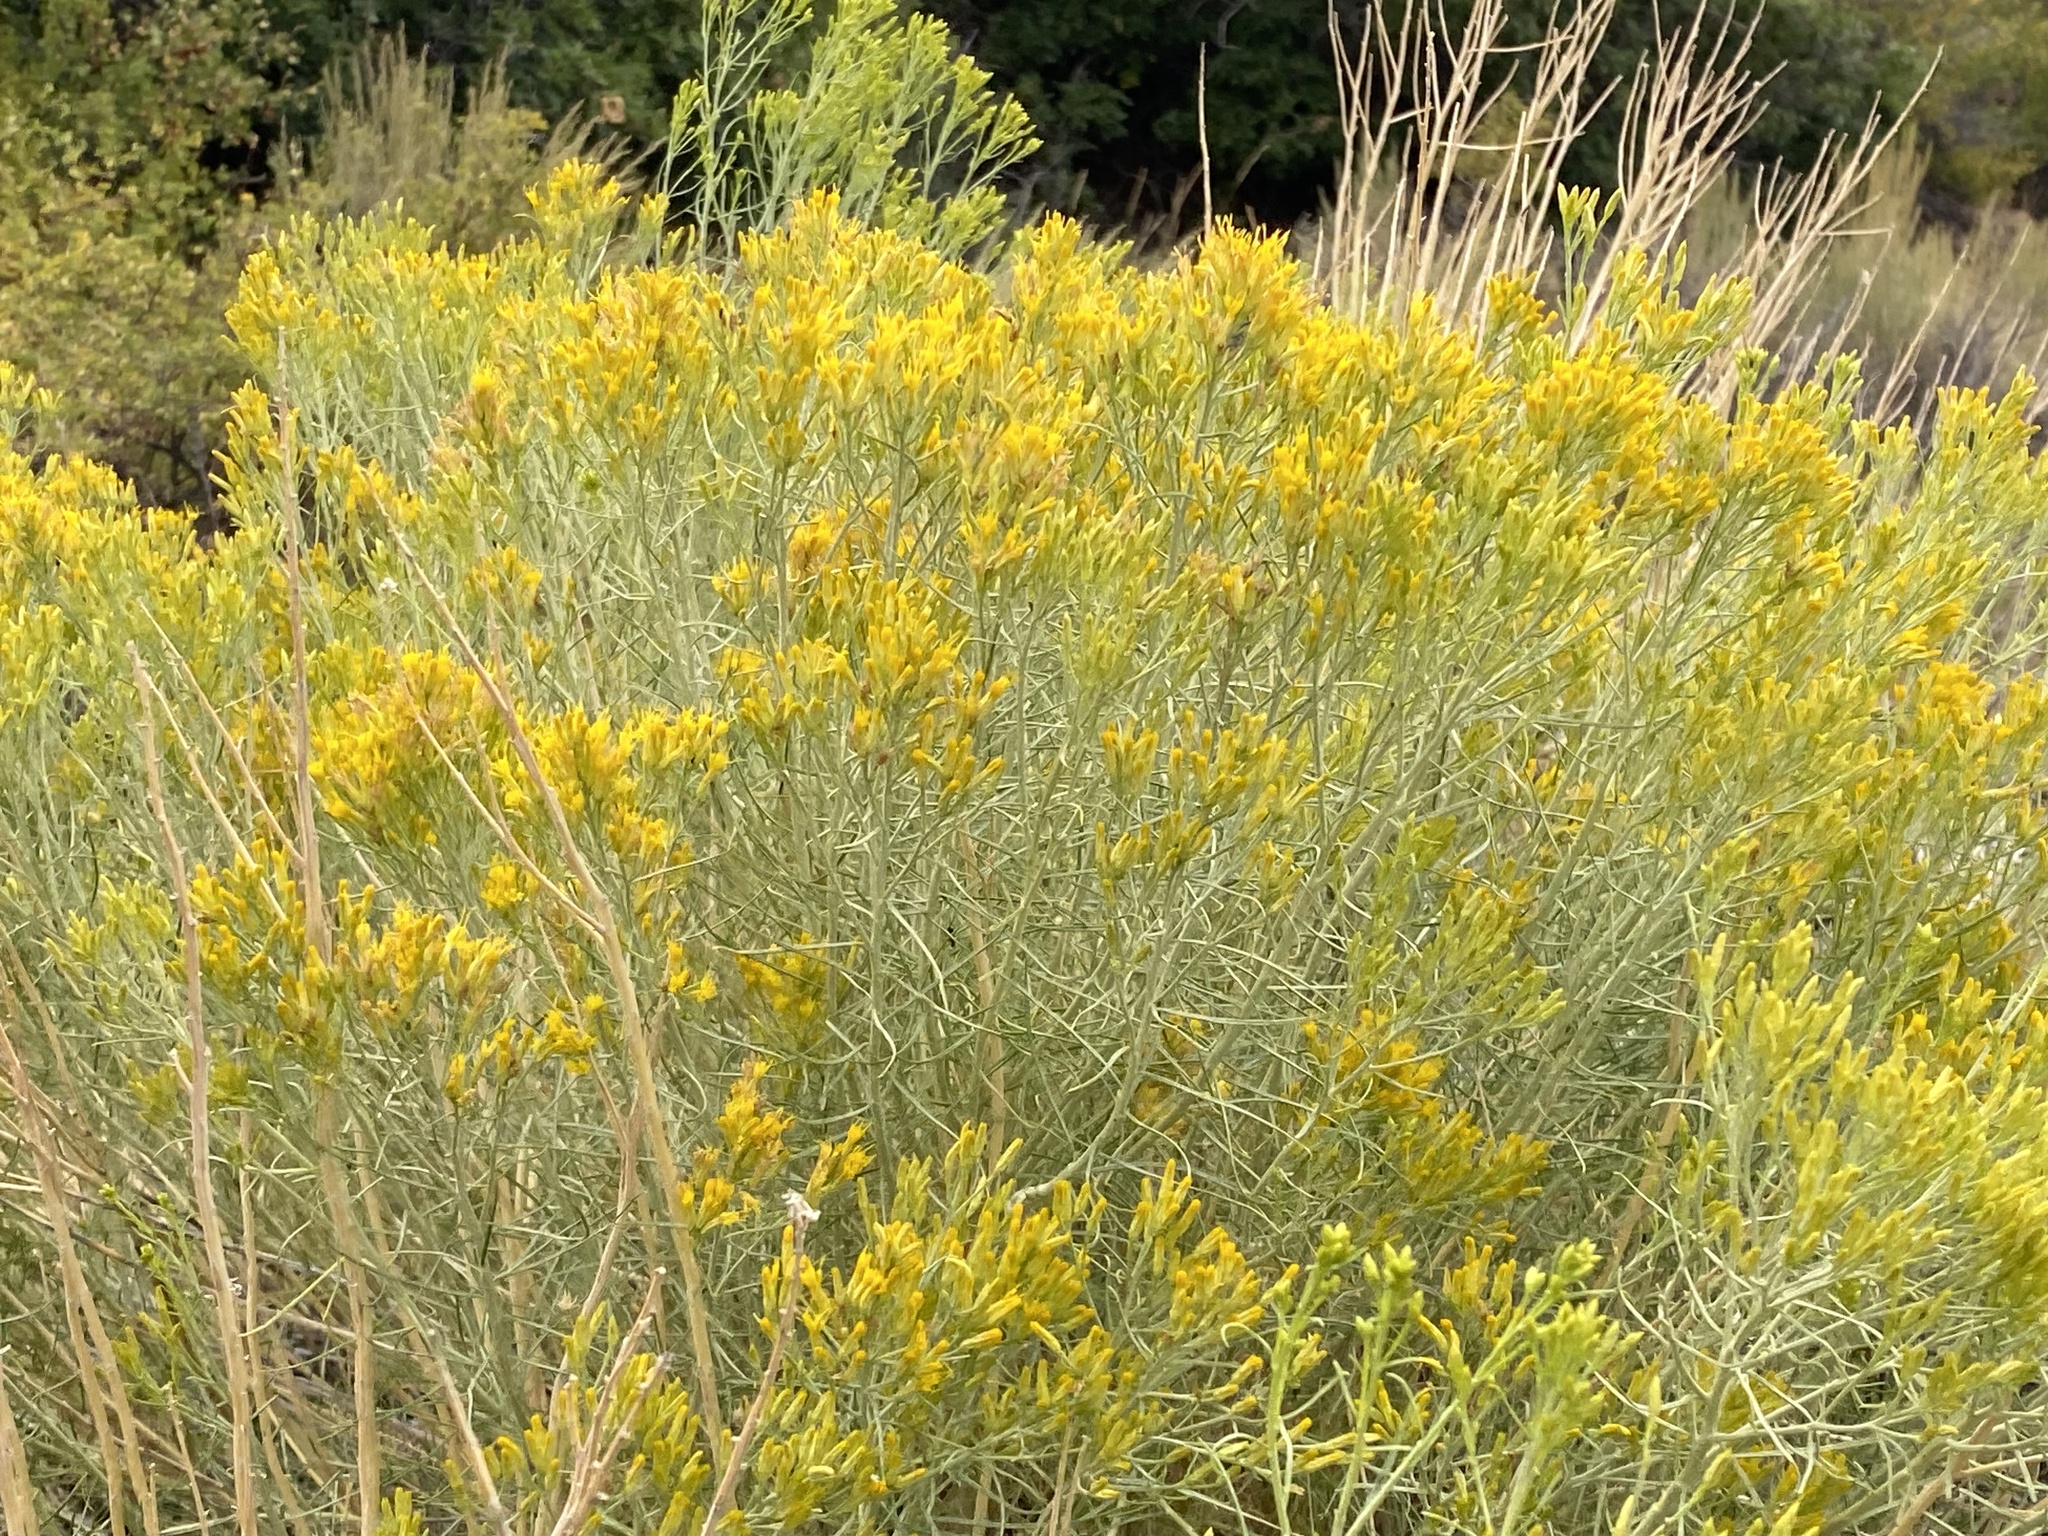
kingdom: Plantae
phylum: Tracheophyta
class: Magnoliopsida
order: Asterales
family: Asteraceae
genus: Ericameria
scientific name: Ericameria nauseosa
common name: Rubber rabbitbrush
